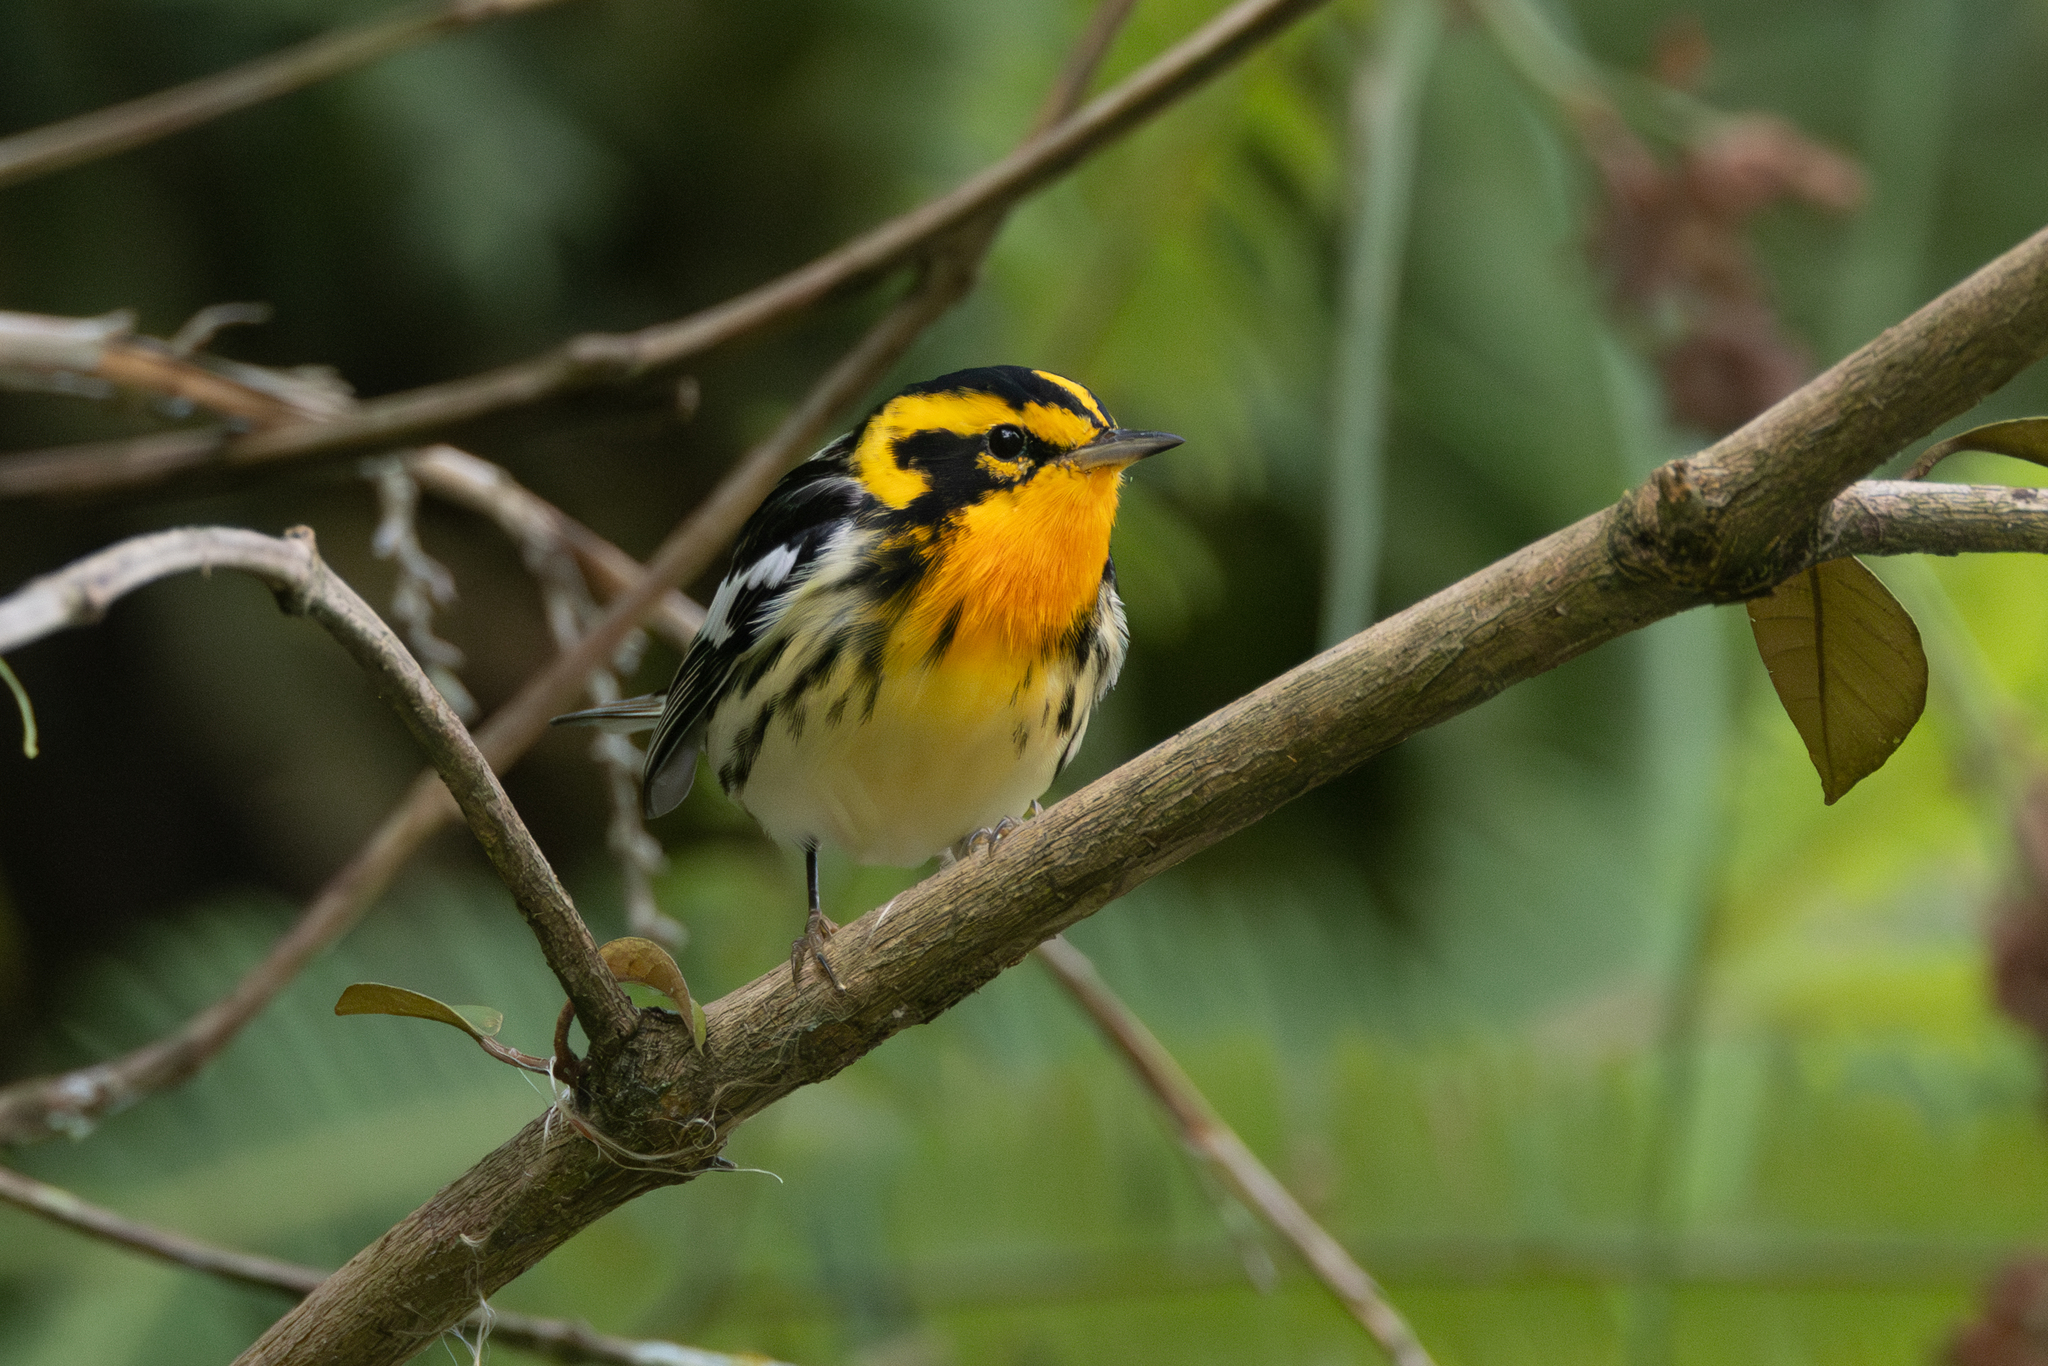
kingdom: Animalia
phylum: Chordata
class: Aves
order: Passeriformes
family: Parulidae
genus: Setophaga
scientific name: Setophaga fusca
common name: Blackburnian warbler
